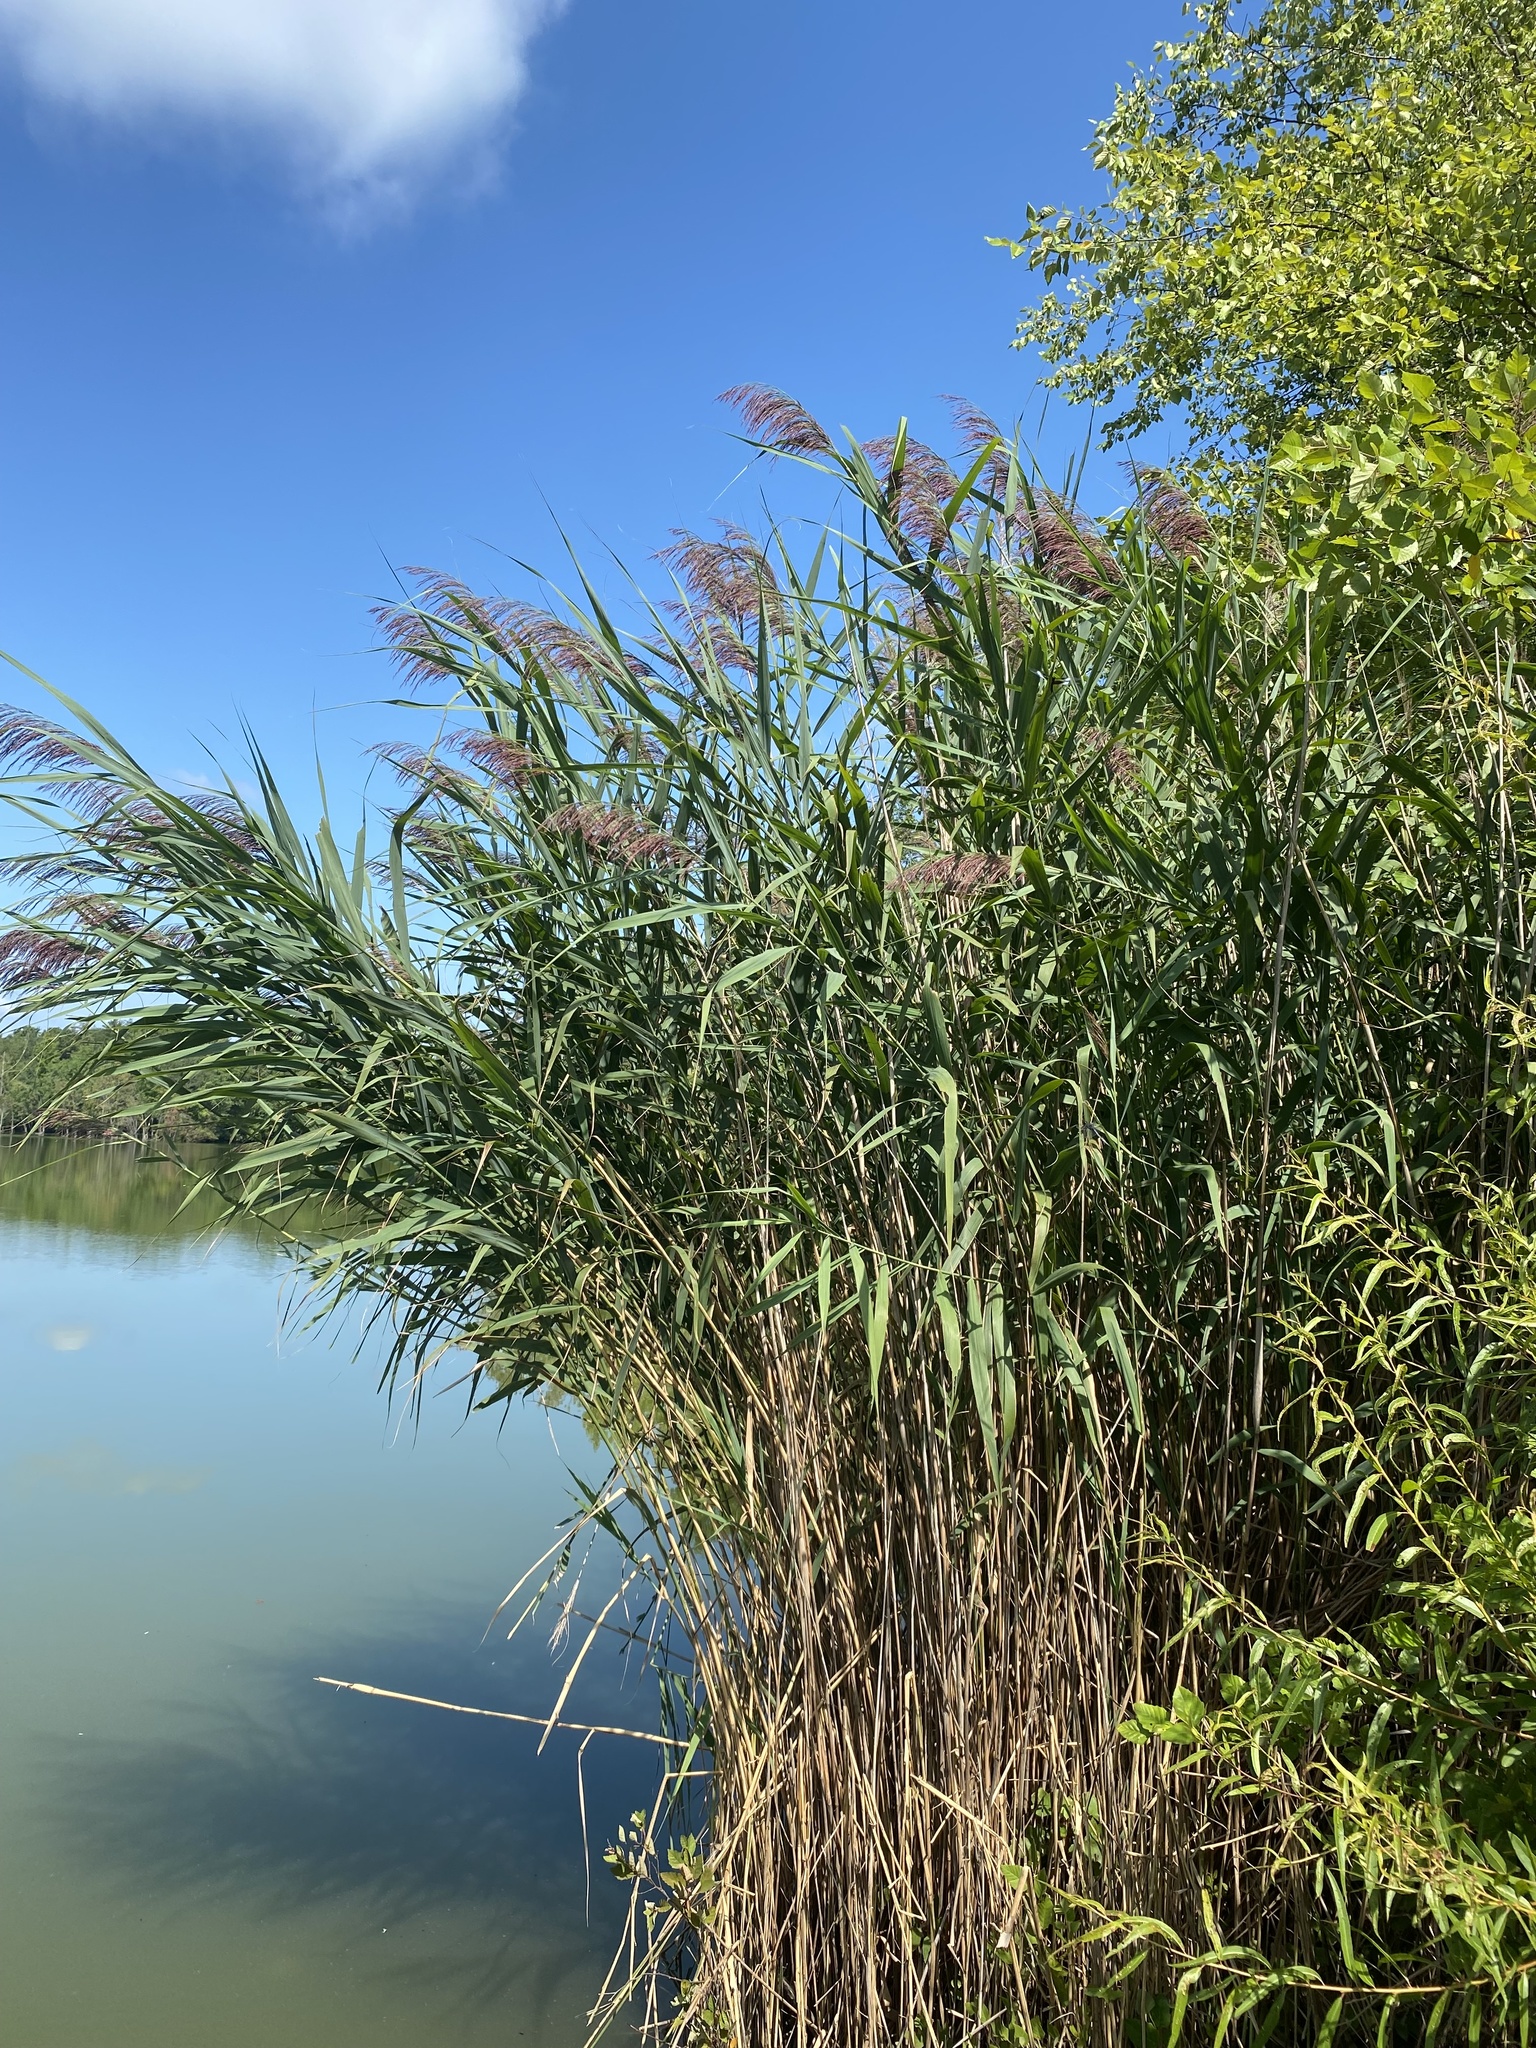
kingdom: Plantae
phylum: Tracheophyta
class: Liliopsida
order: Poales
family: Poaceae
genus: Phragmites
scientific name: Phragmites australis
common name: Common reed
